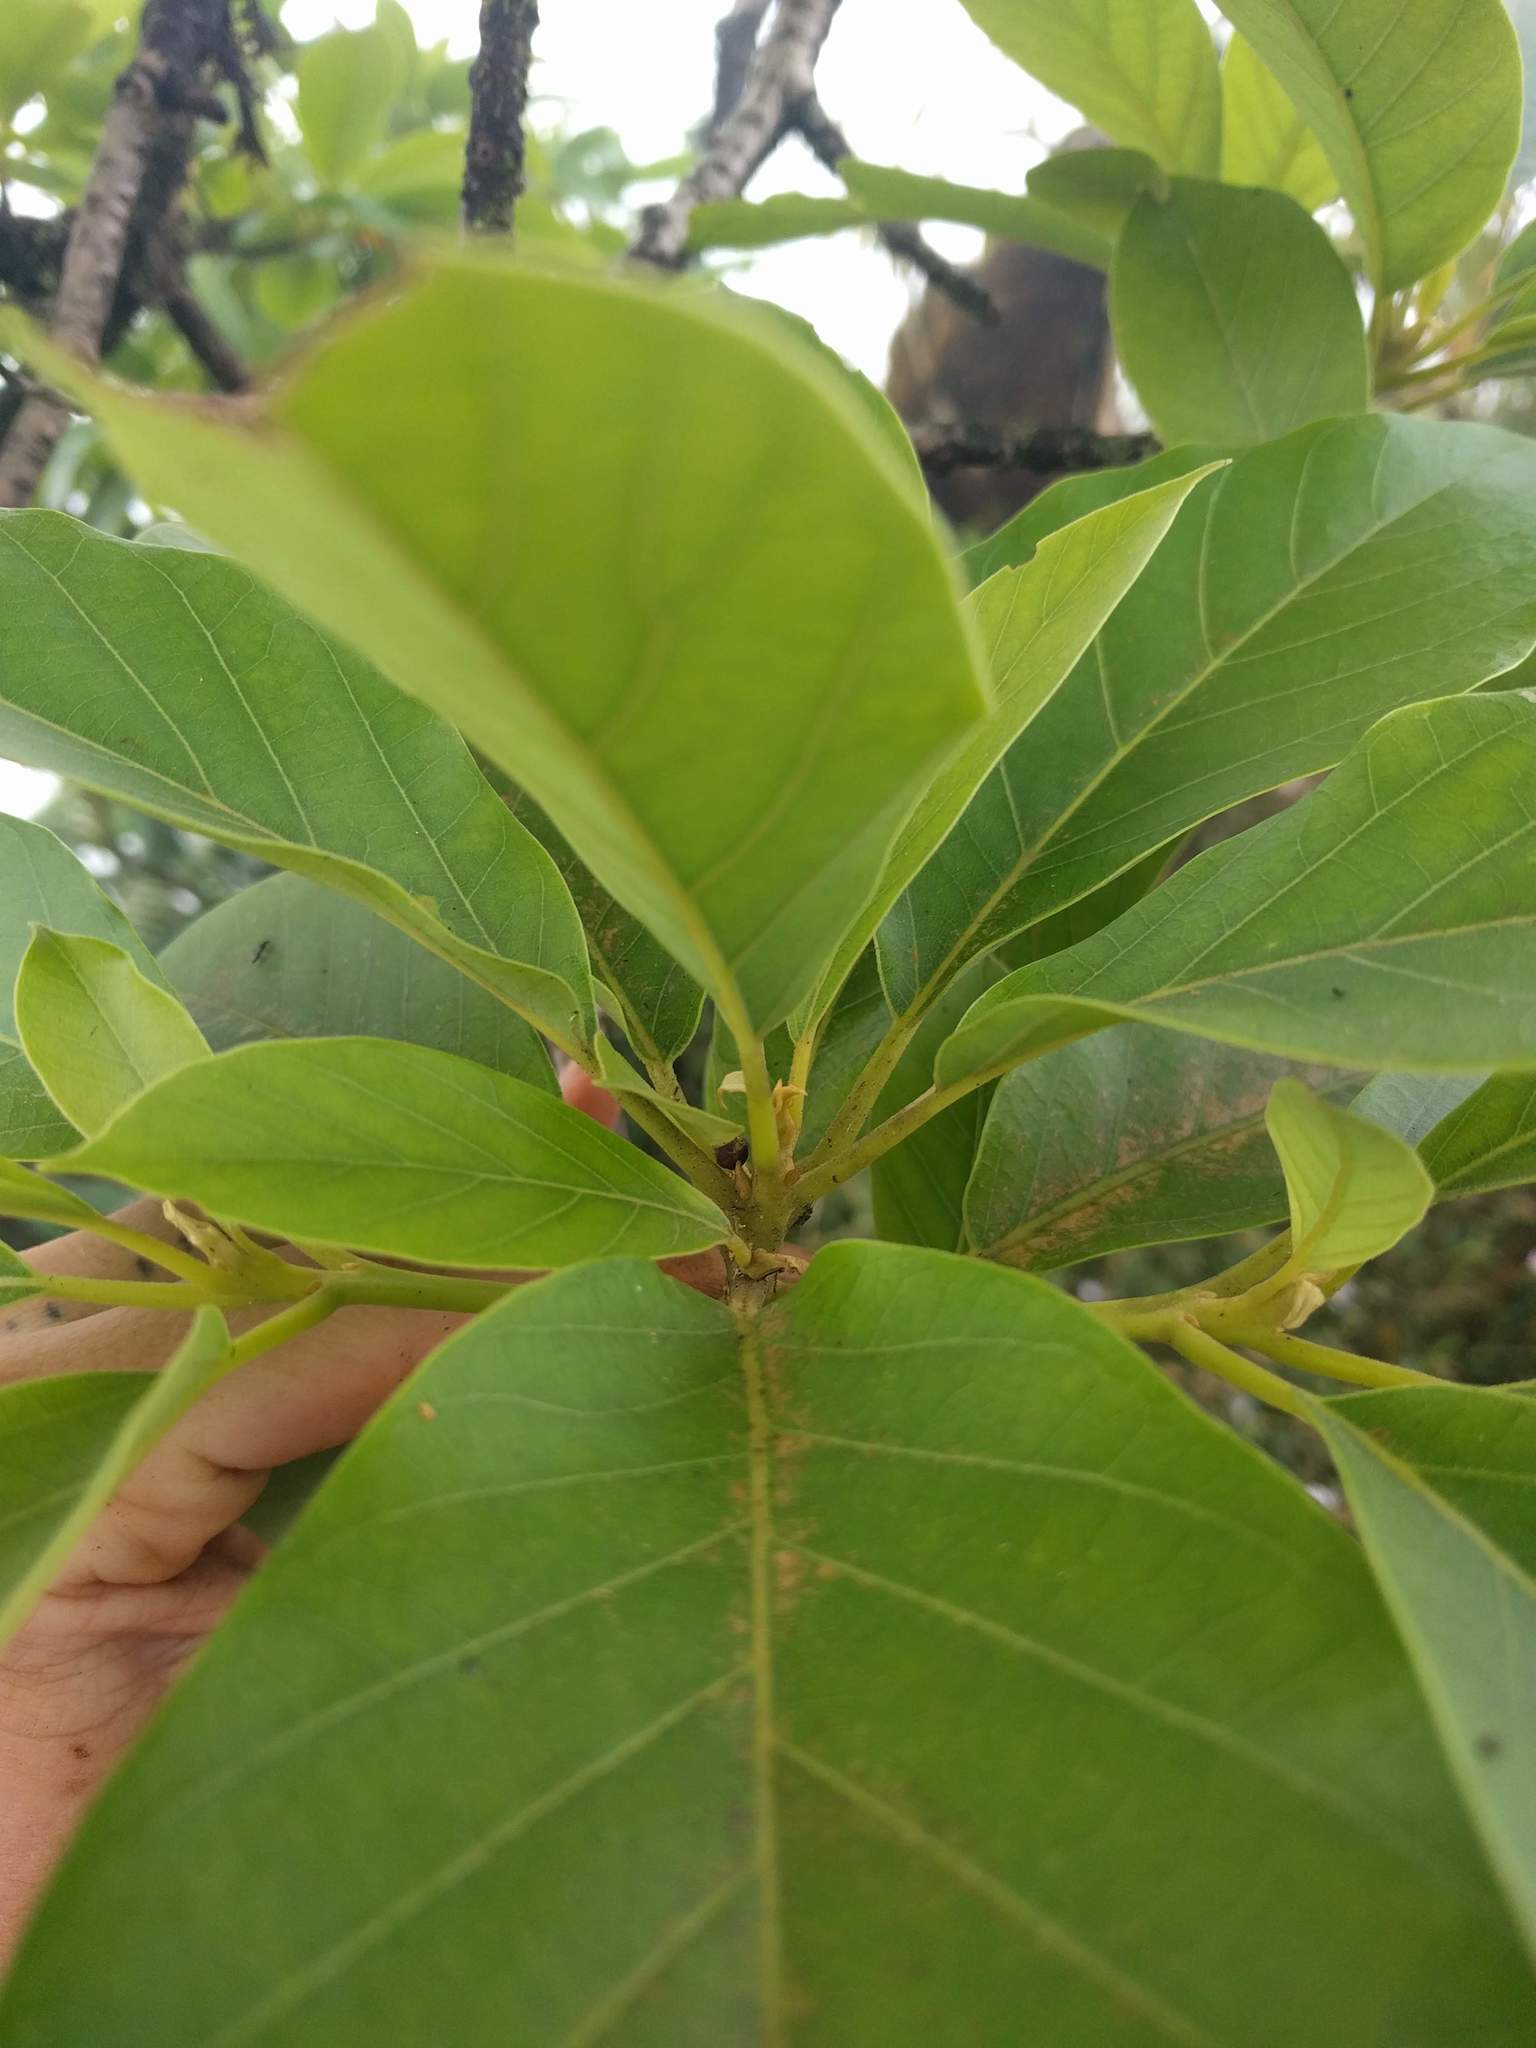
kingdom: Plantae
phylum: Tracheophyta
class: Magnoliopsida
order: Laurales
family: Lauraceae
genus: Persea
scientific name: Persea americana
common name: Avocado
